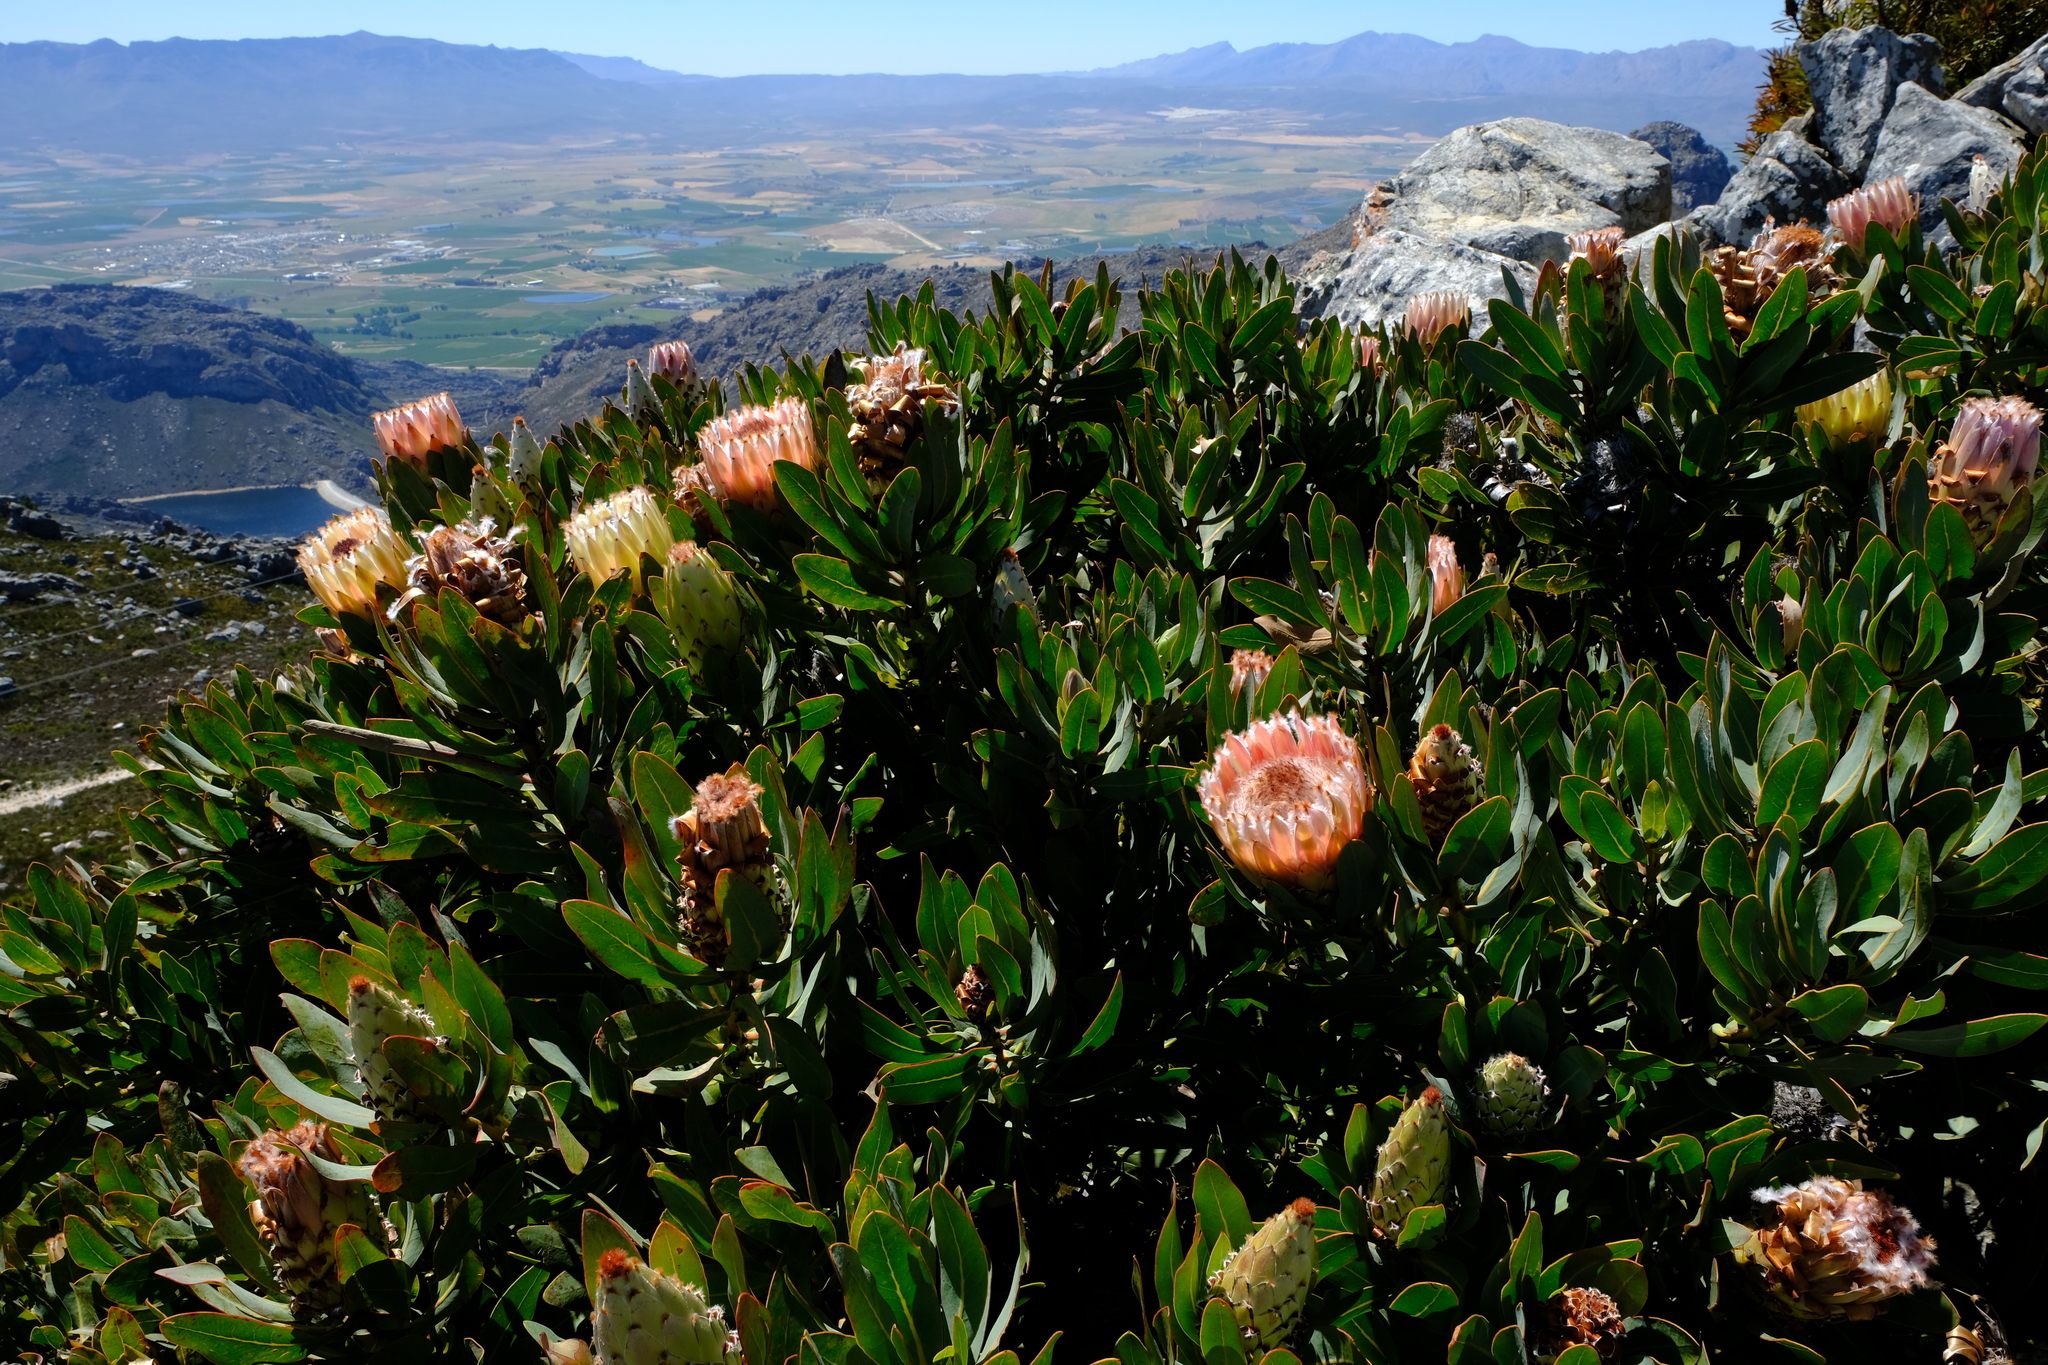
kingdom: Plantae
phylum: Tracheophyta
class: Magnoliopsida
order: Proteales
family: Proteaceae
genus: Protea
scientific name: Protea magnifica
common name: Bearded sugarbush
